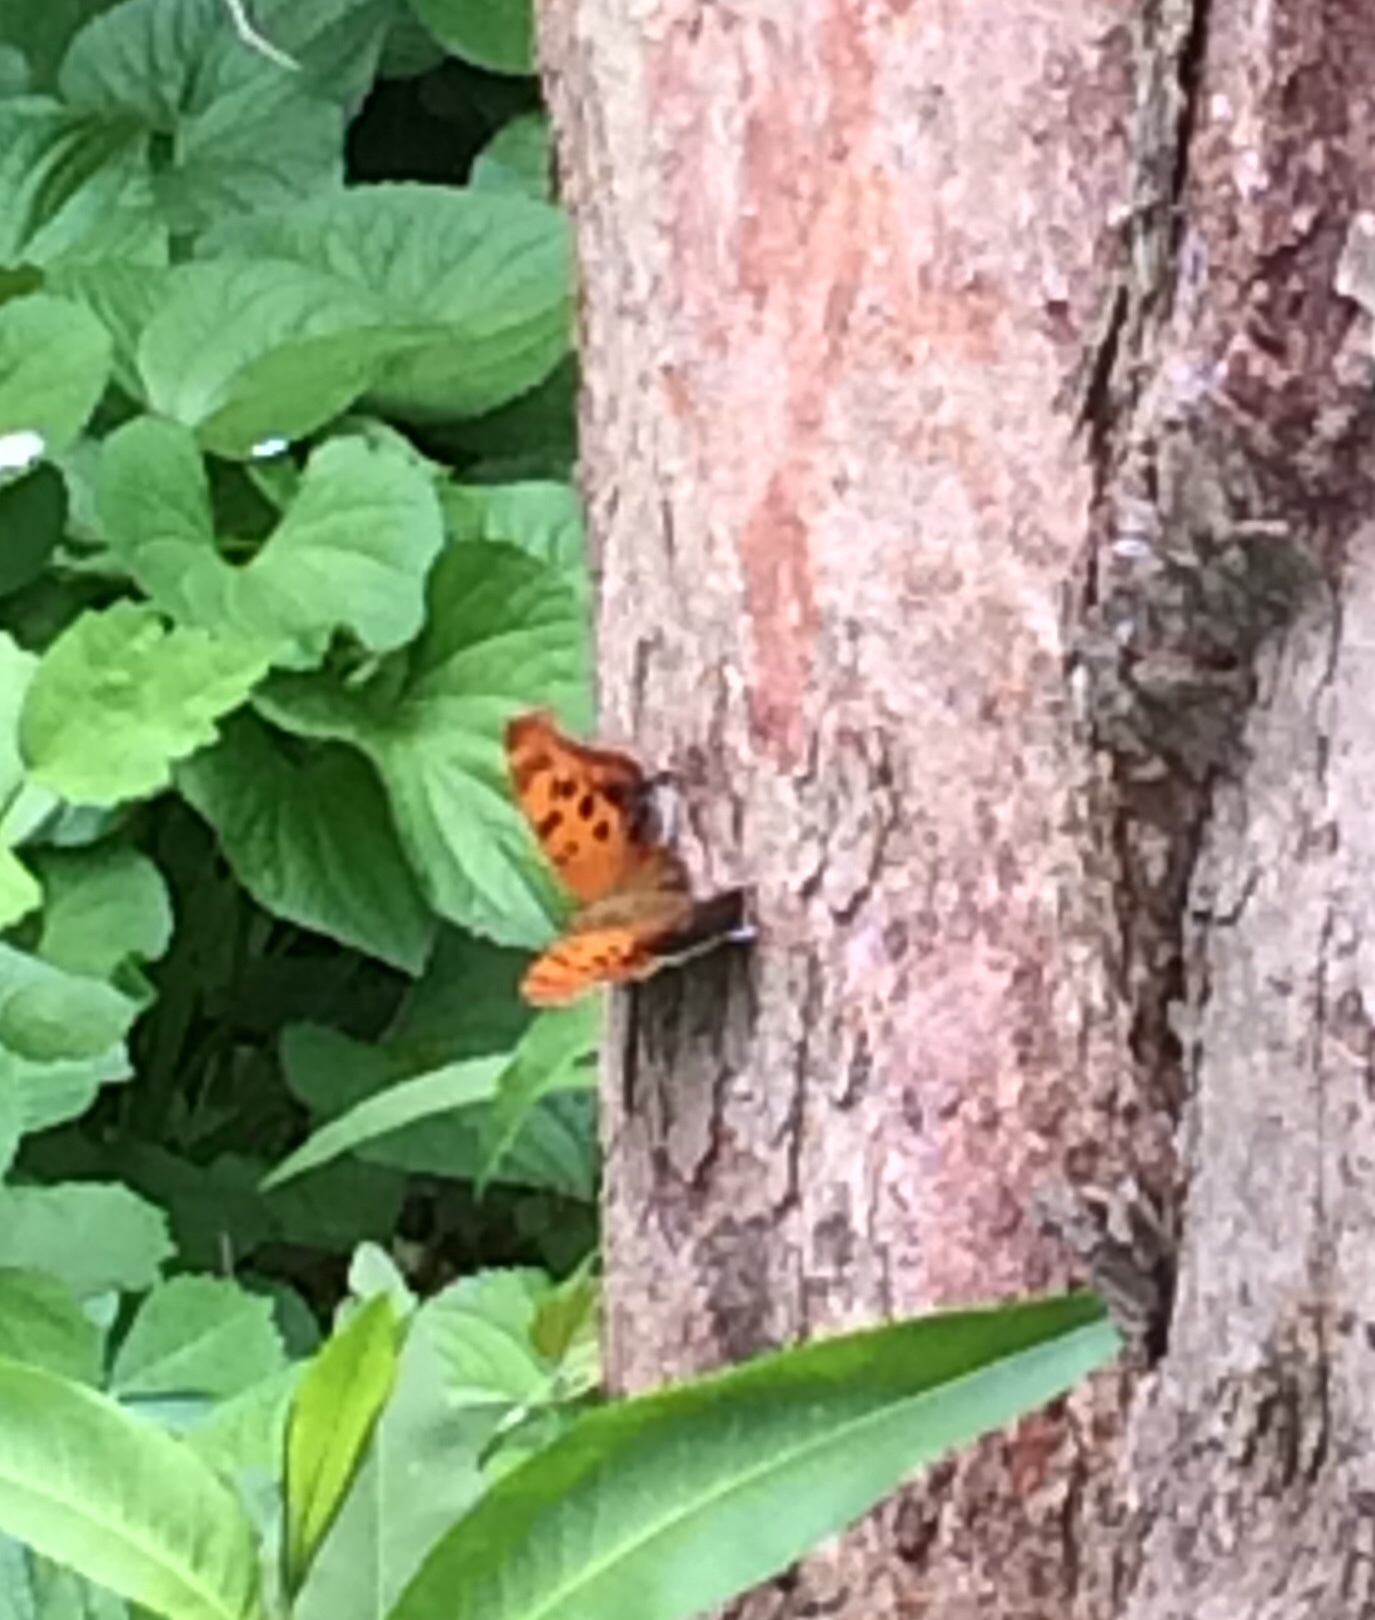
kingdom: Animalia
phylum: Arthropoda
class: Insecta
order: Lepidoptera
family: Nymphalidae
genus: Polygonia
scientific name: Polygonia interrogationis
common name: Question mark
